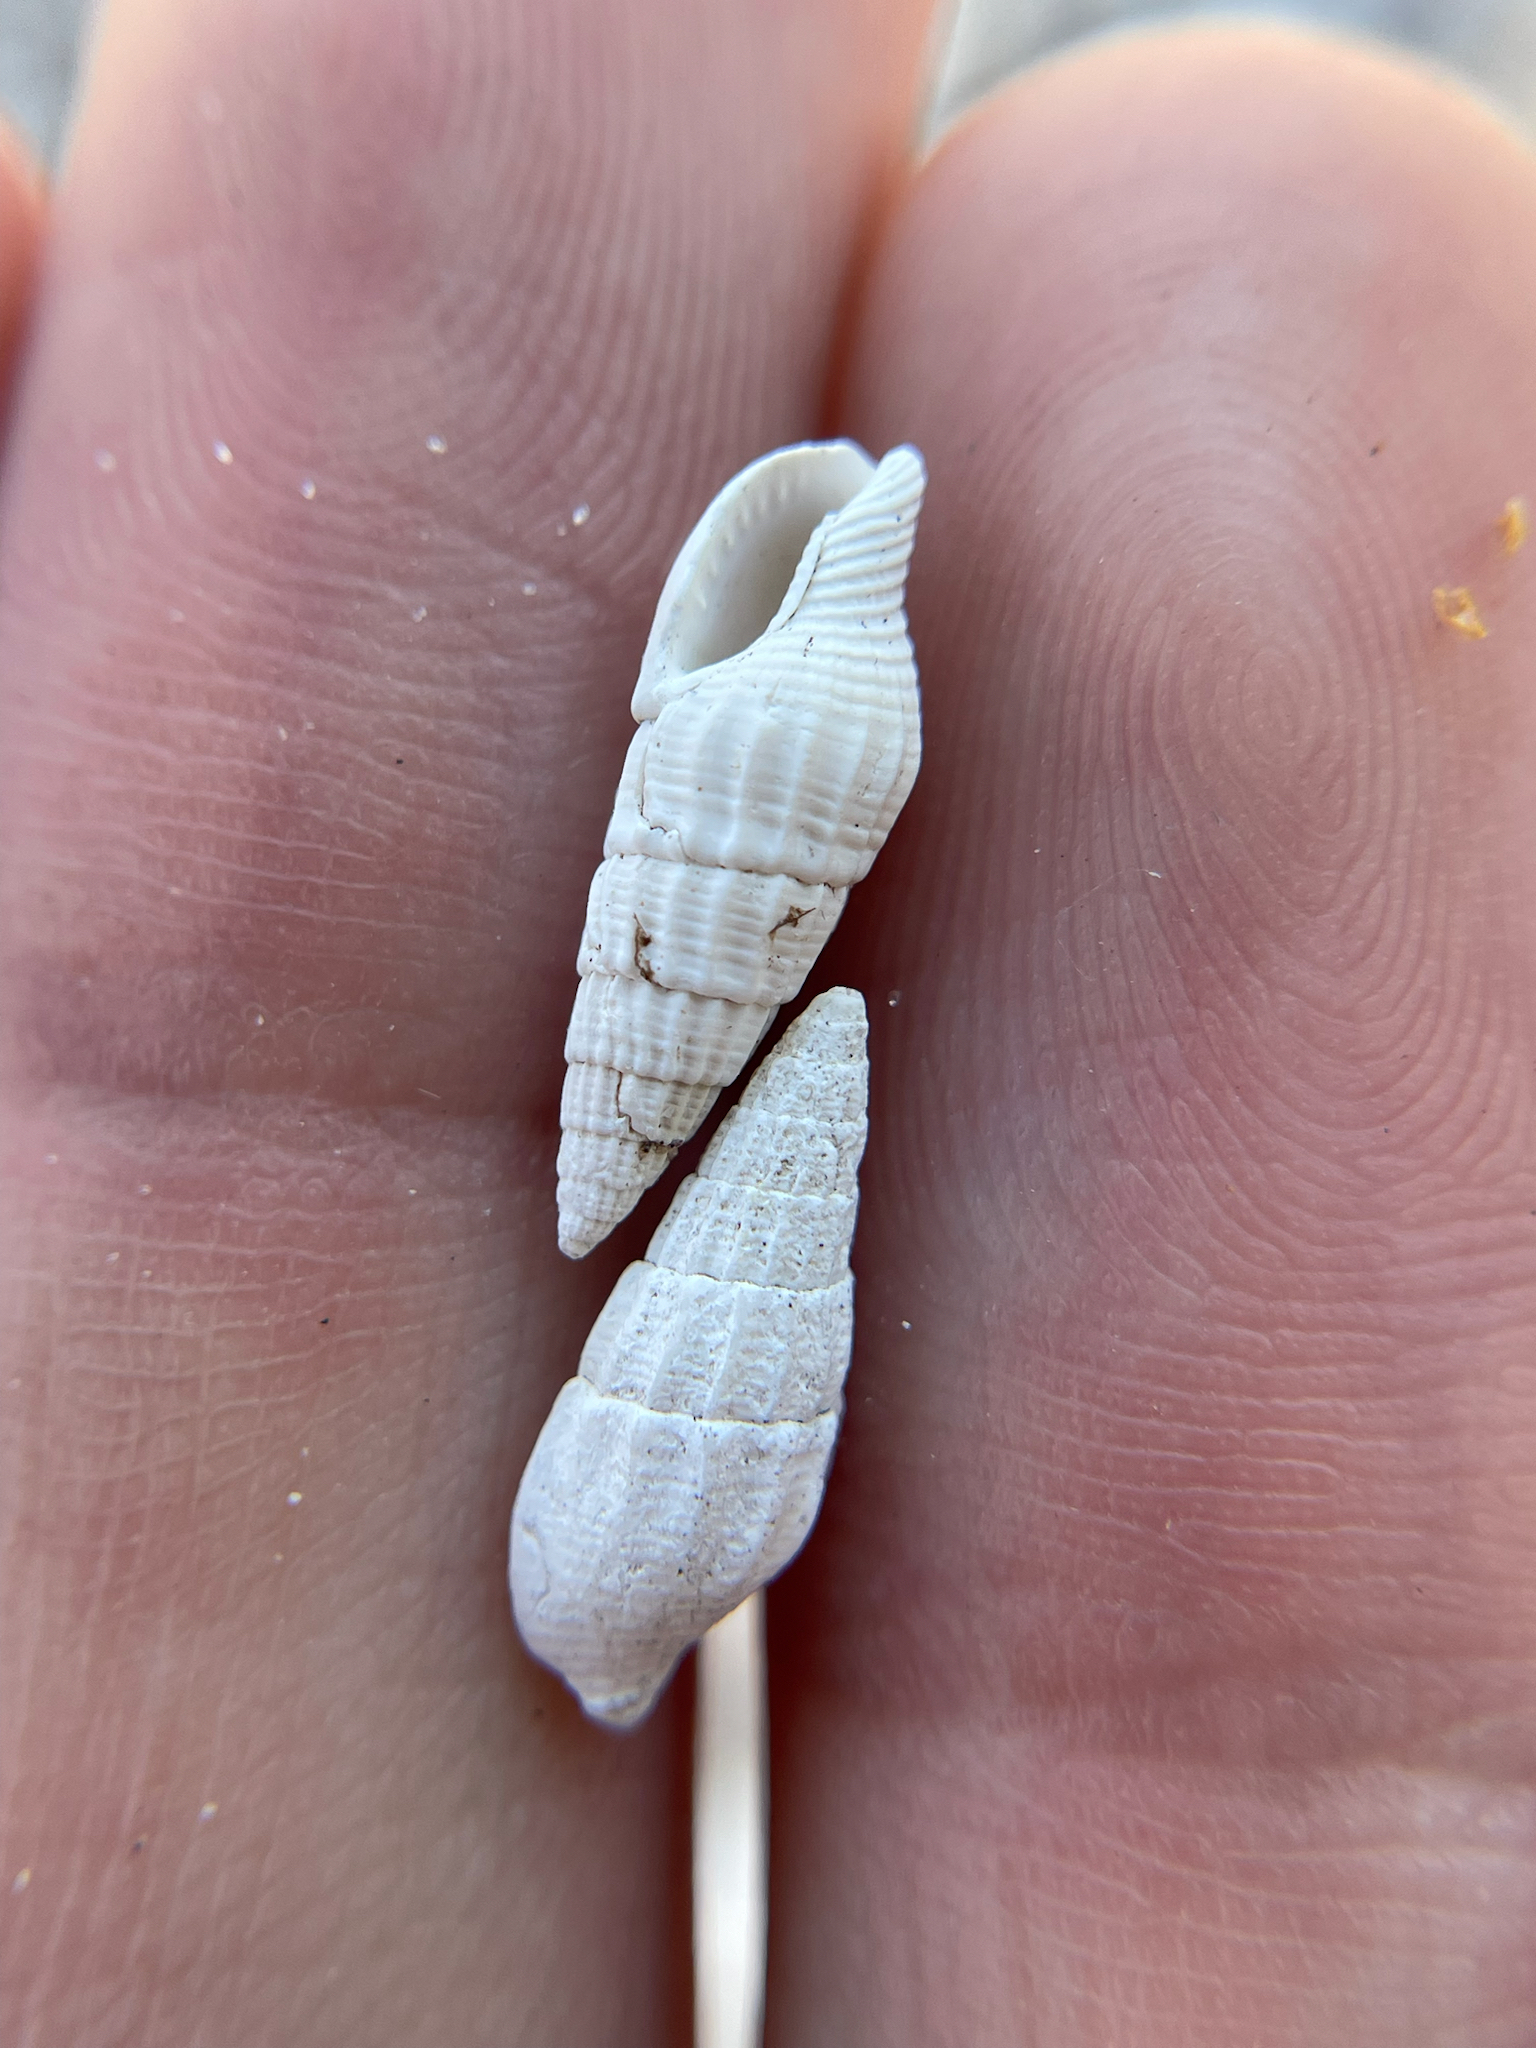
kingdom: Animalia
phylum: Mollusca
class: Gastropoda
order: Neogastropoda
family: Columbellidae
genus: Costoanachis
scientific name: Costoanachis translirata
